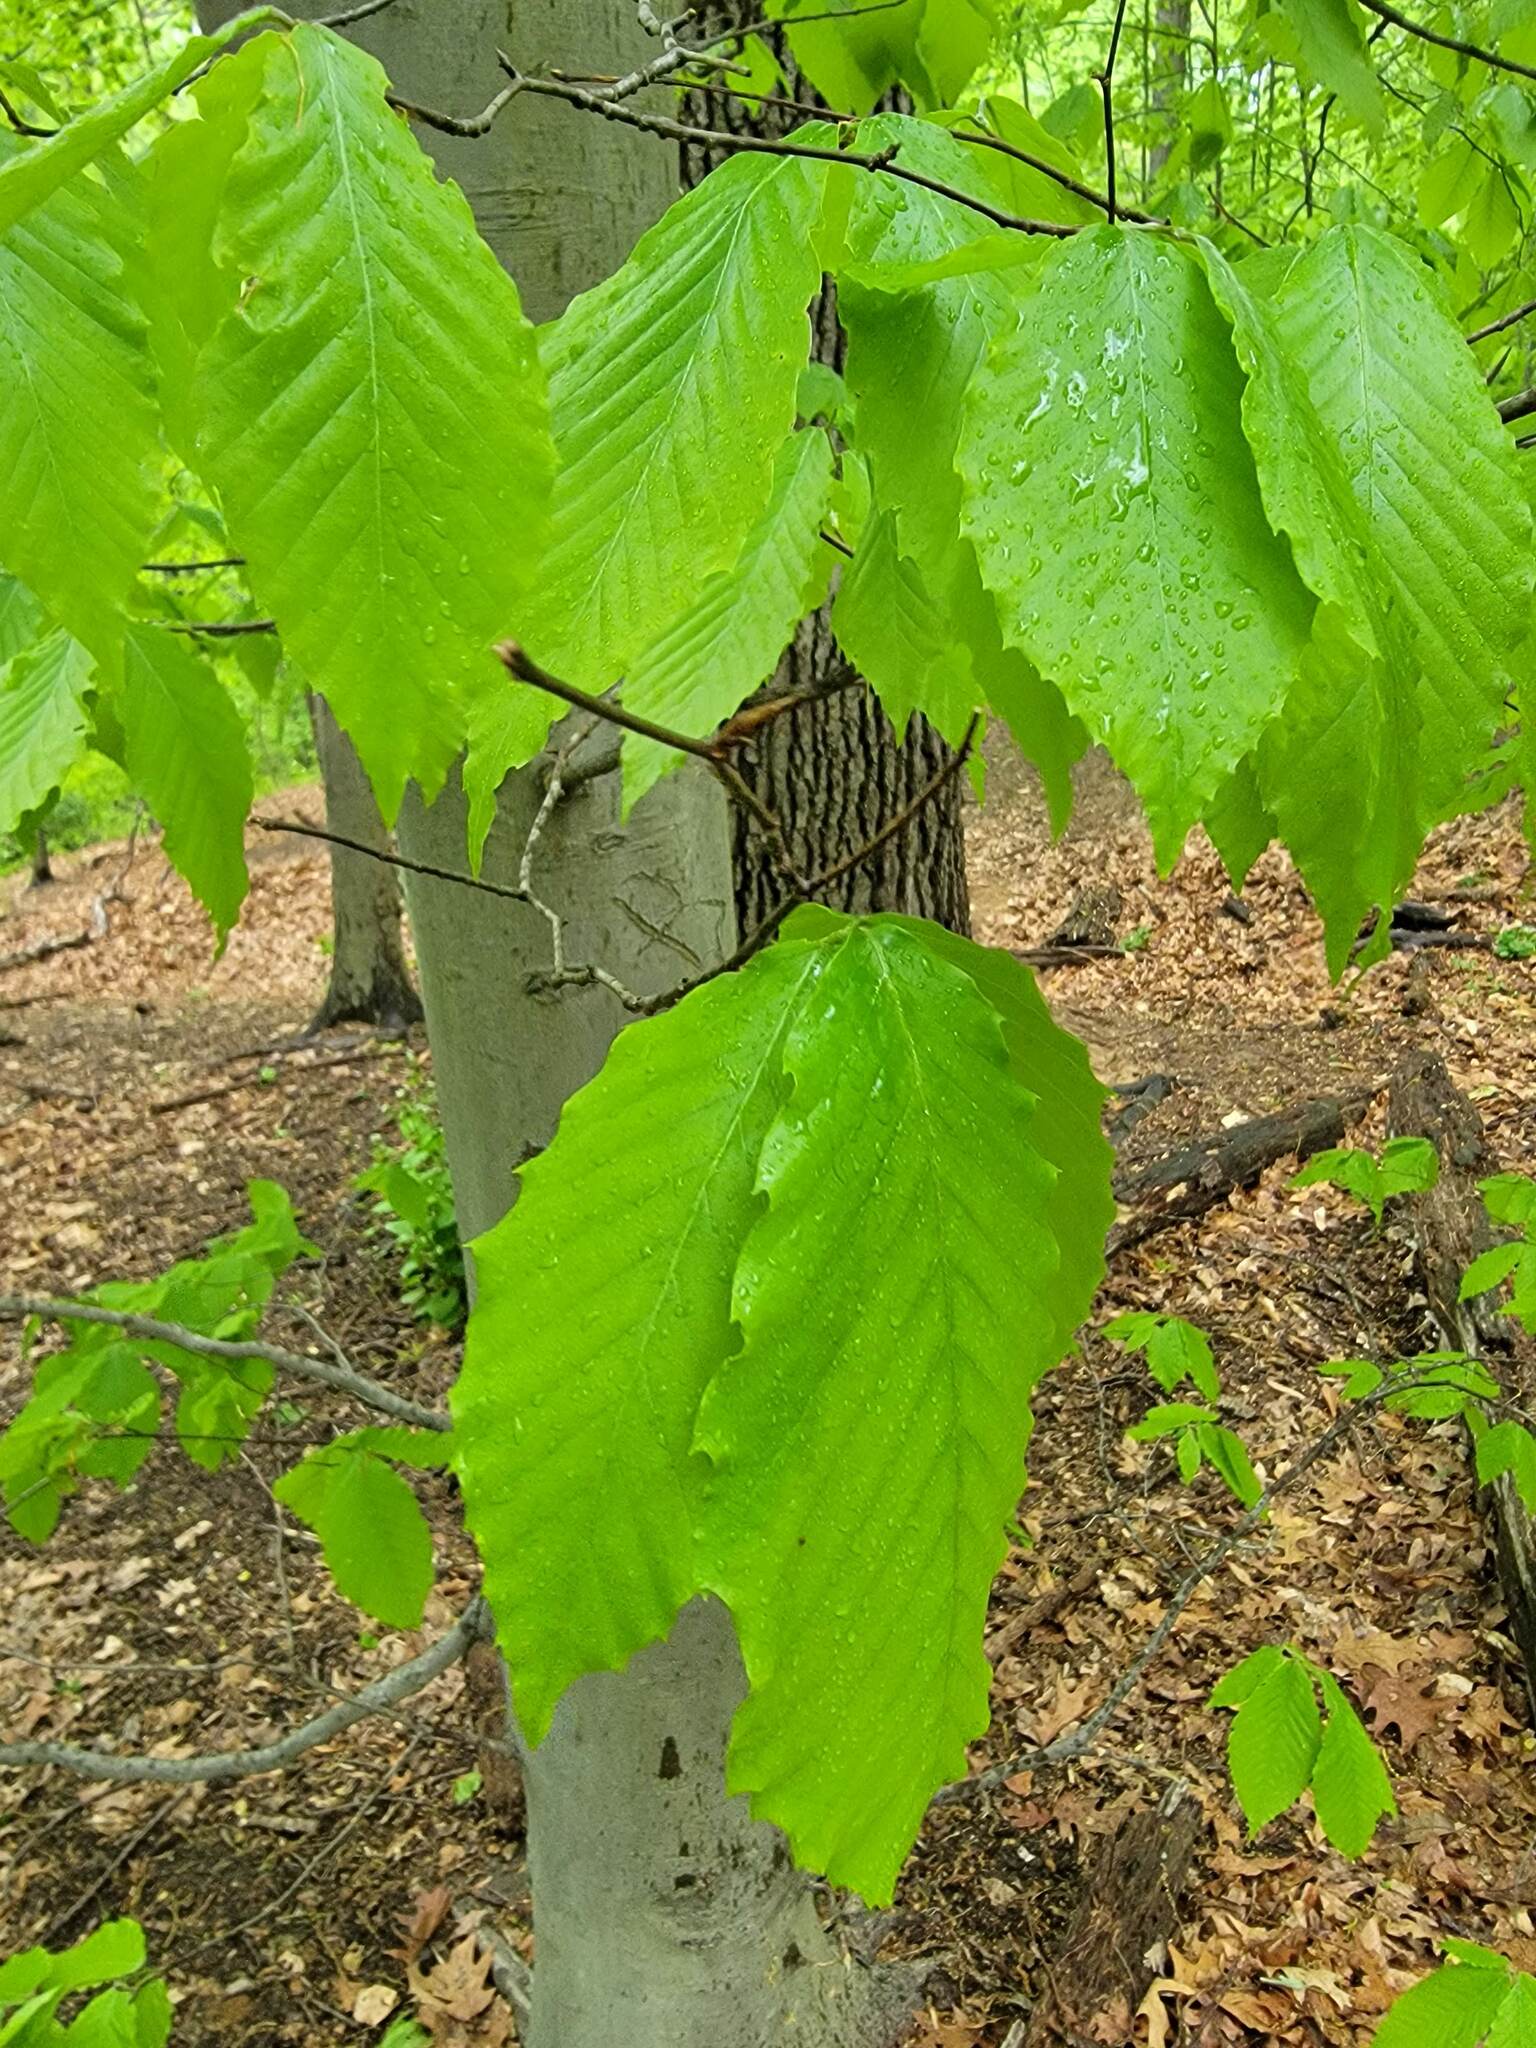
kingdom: Plantae
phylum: Tracheophyta
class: Magnoliopsida
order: Fagales
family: Fagaceae
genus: Fagus
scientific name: Fagus grandifolia
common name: American beech
